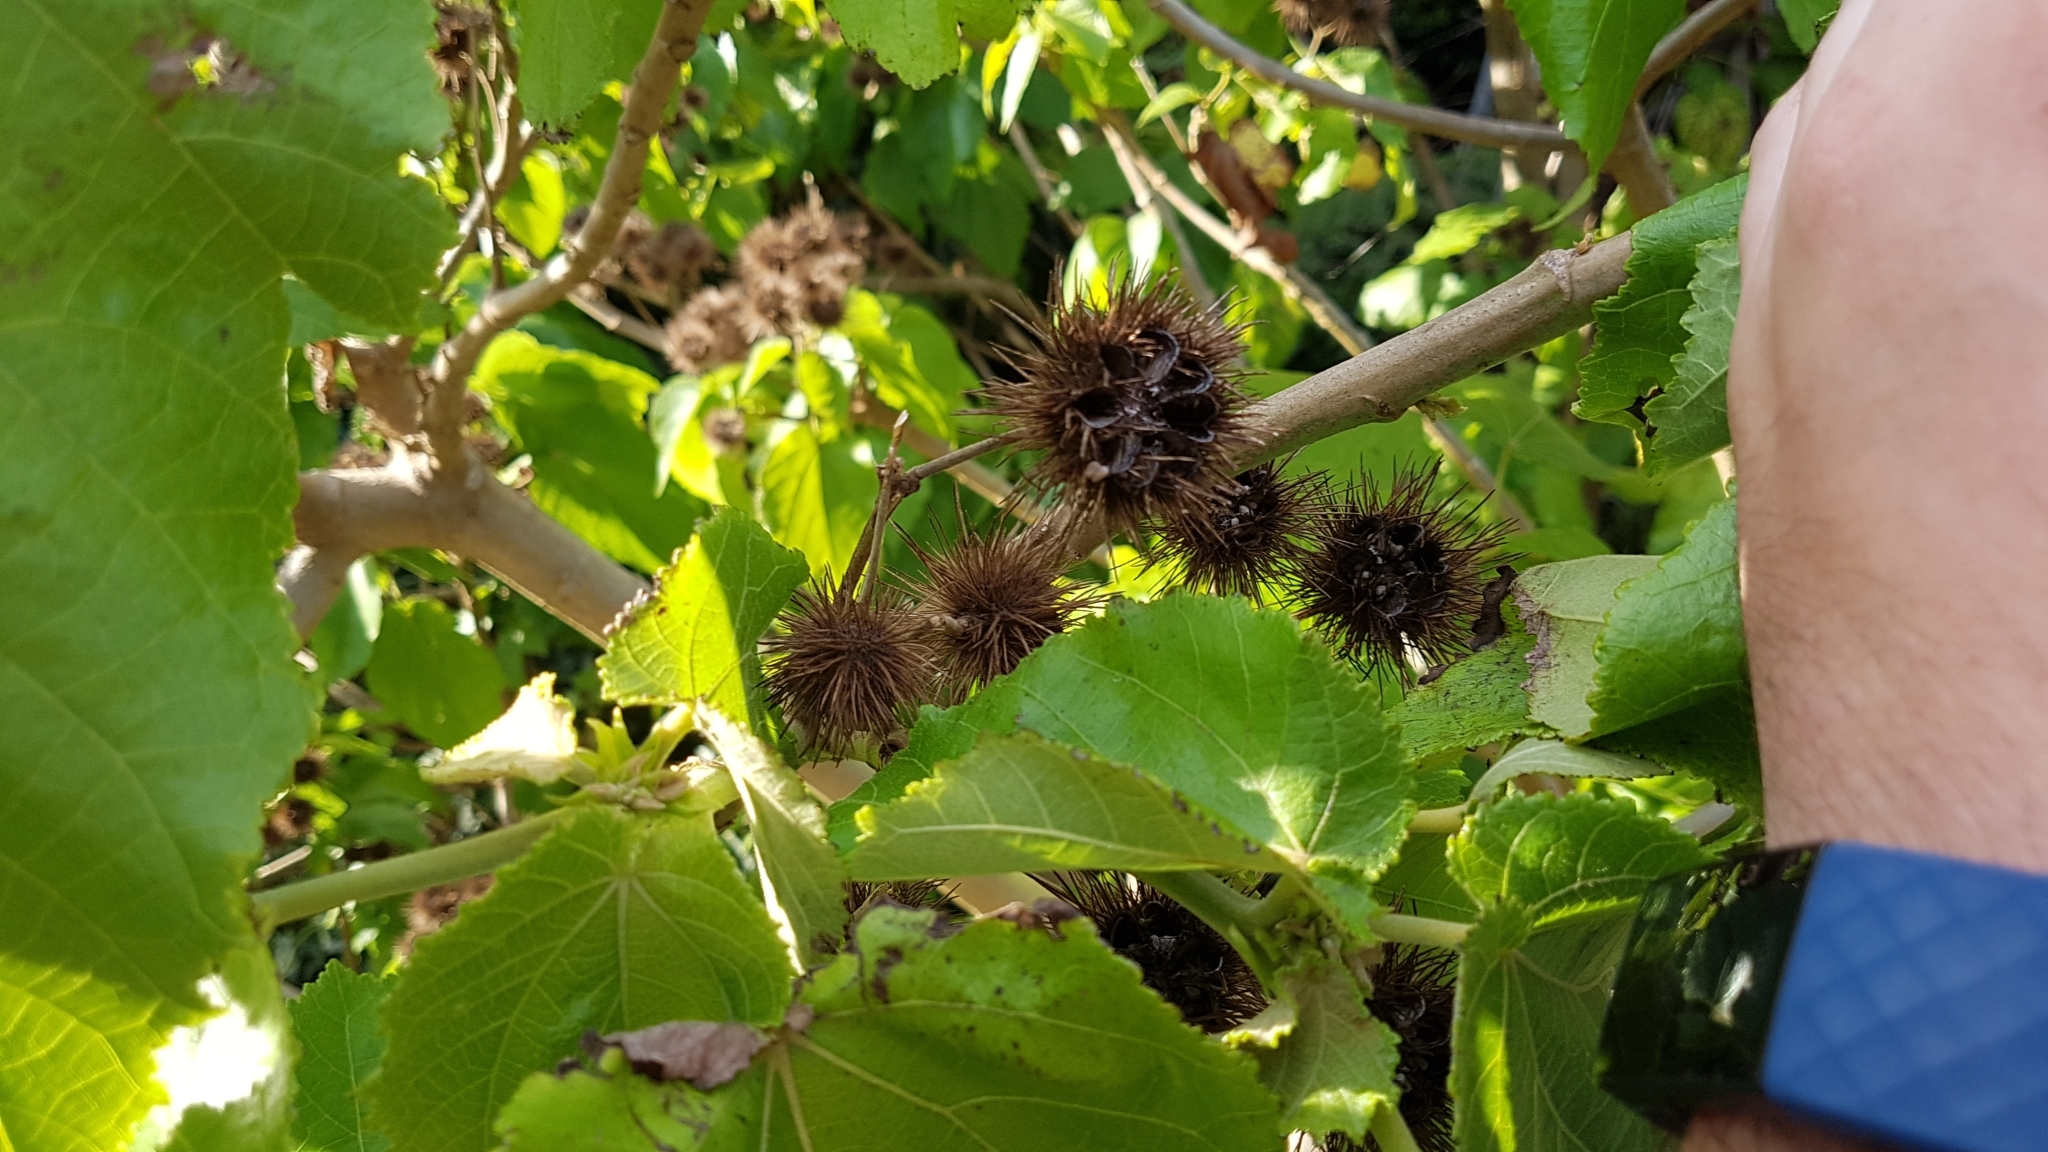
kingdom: Plantae
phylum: Tracheophyta
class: Magnoliopsida
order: Malvales
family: Malvaceae
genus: Entelea
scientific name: Entelea arborescens
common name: New zealand-mulberry
